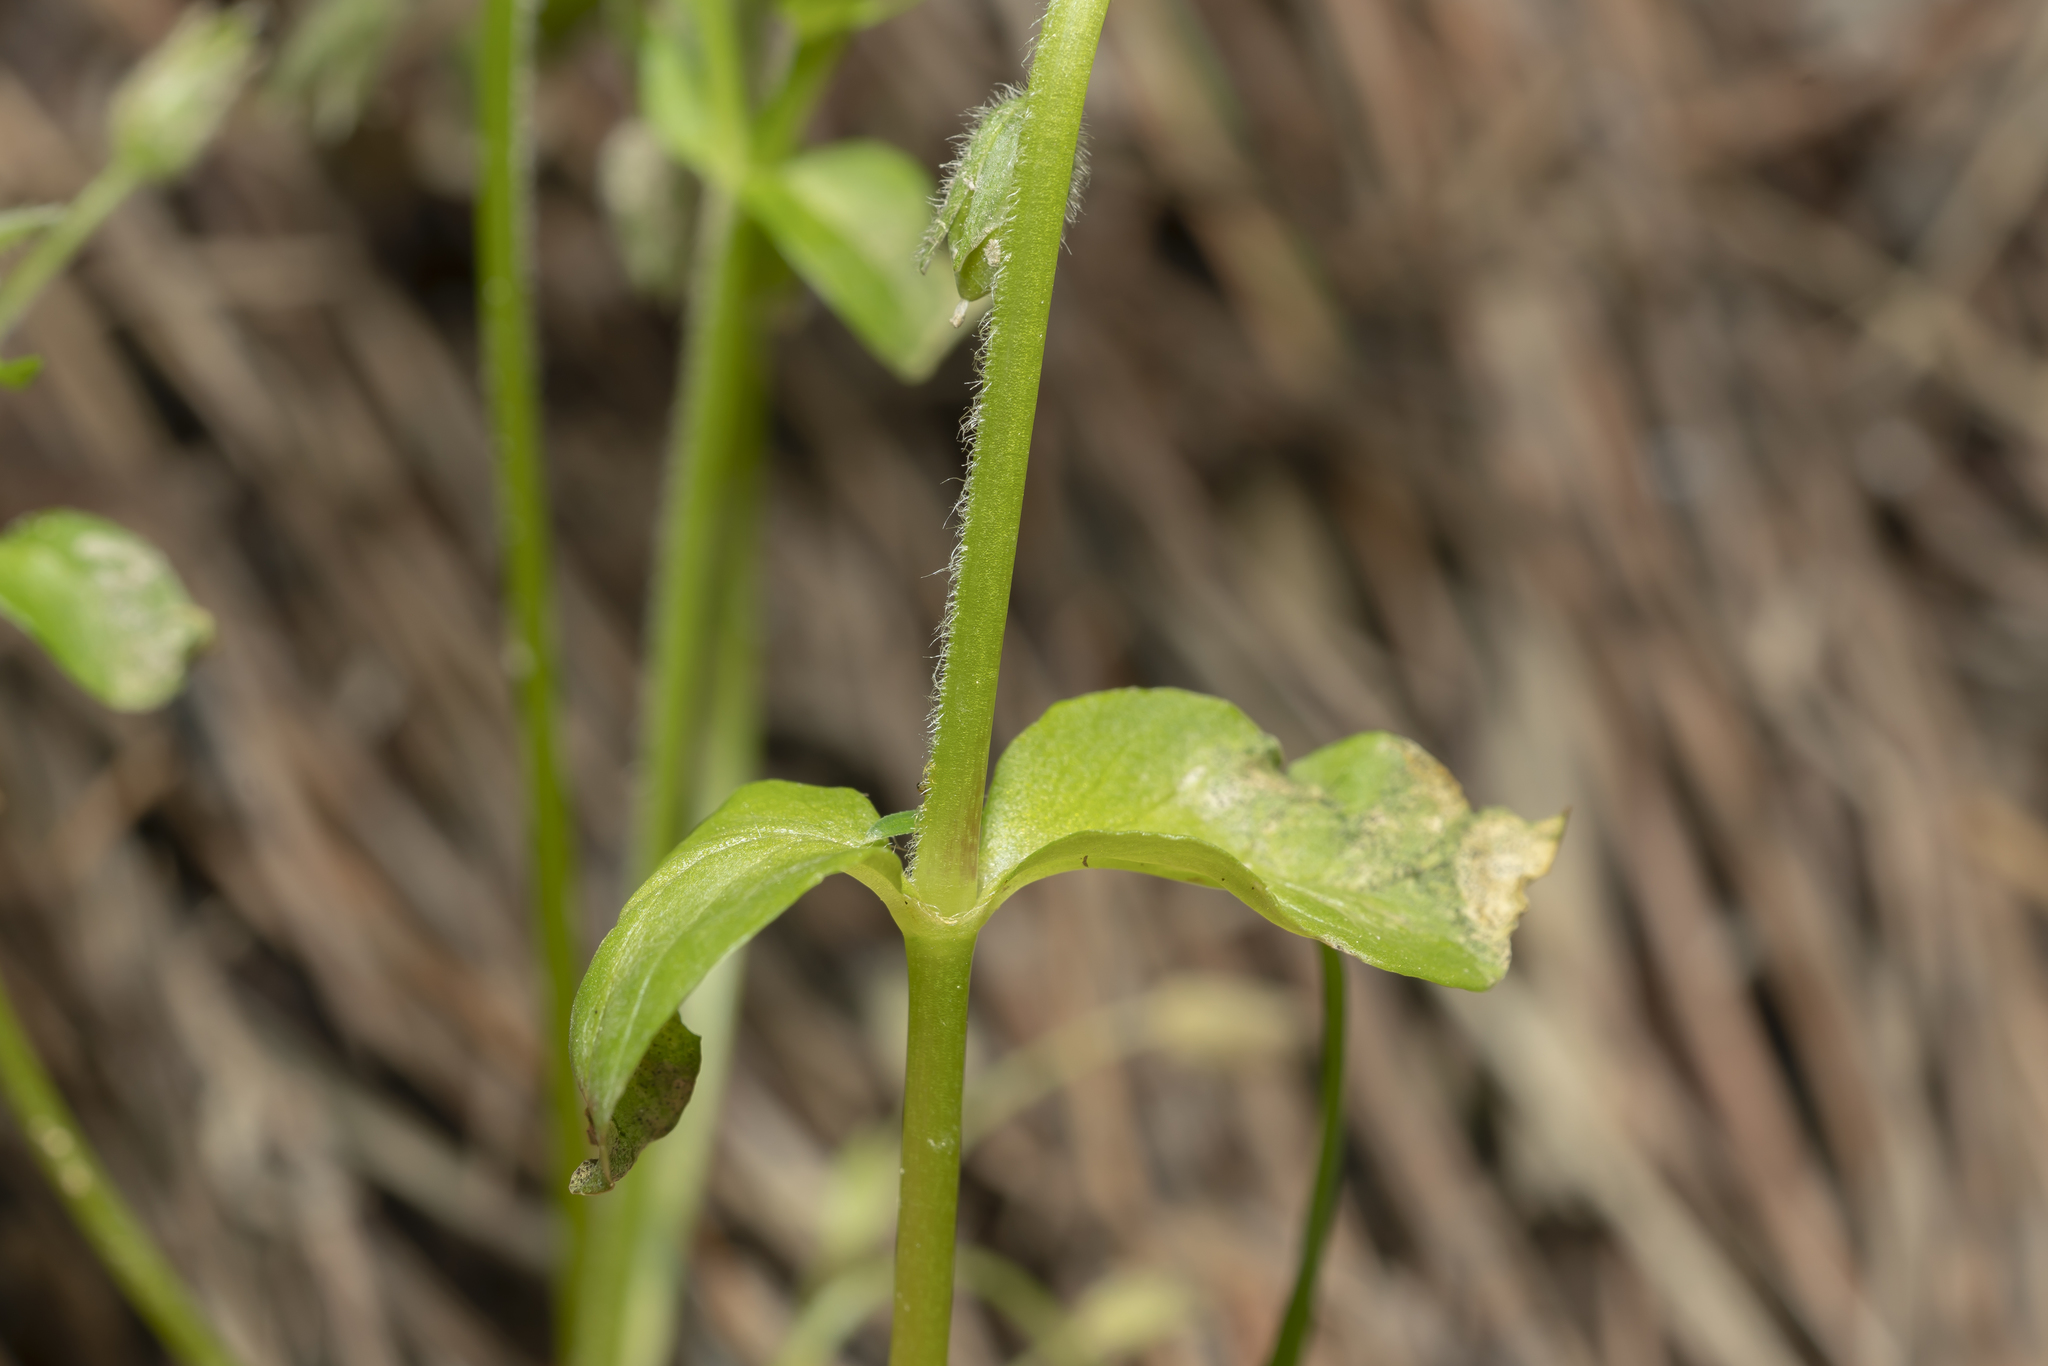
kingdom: Plantae
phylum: Tracheophyta
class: Magnoliopsida
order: Caryophyllales
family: Caryophyllaceae
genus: Stellaria
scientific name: Stellaria media
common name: Common chickweed
